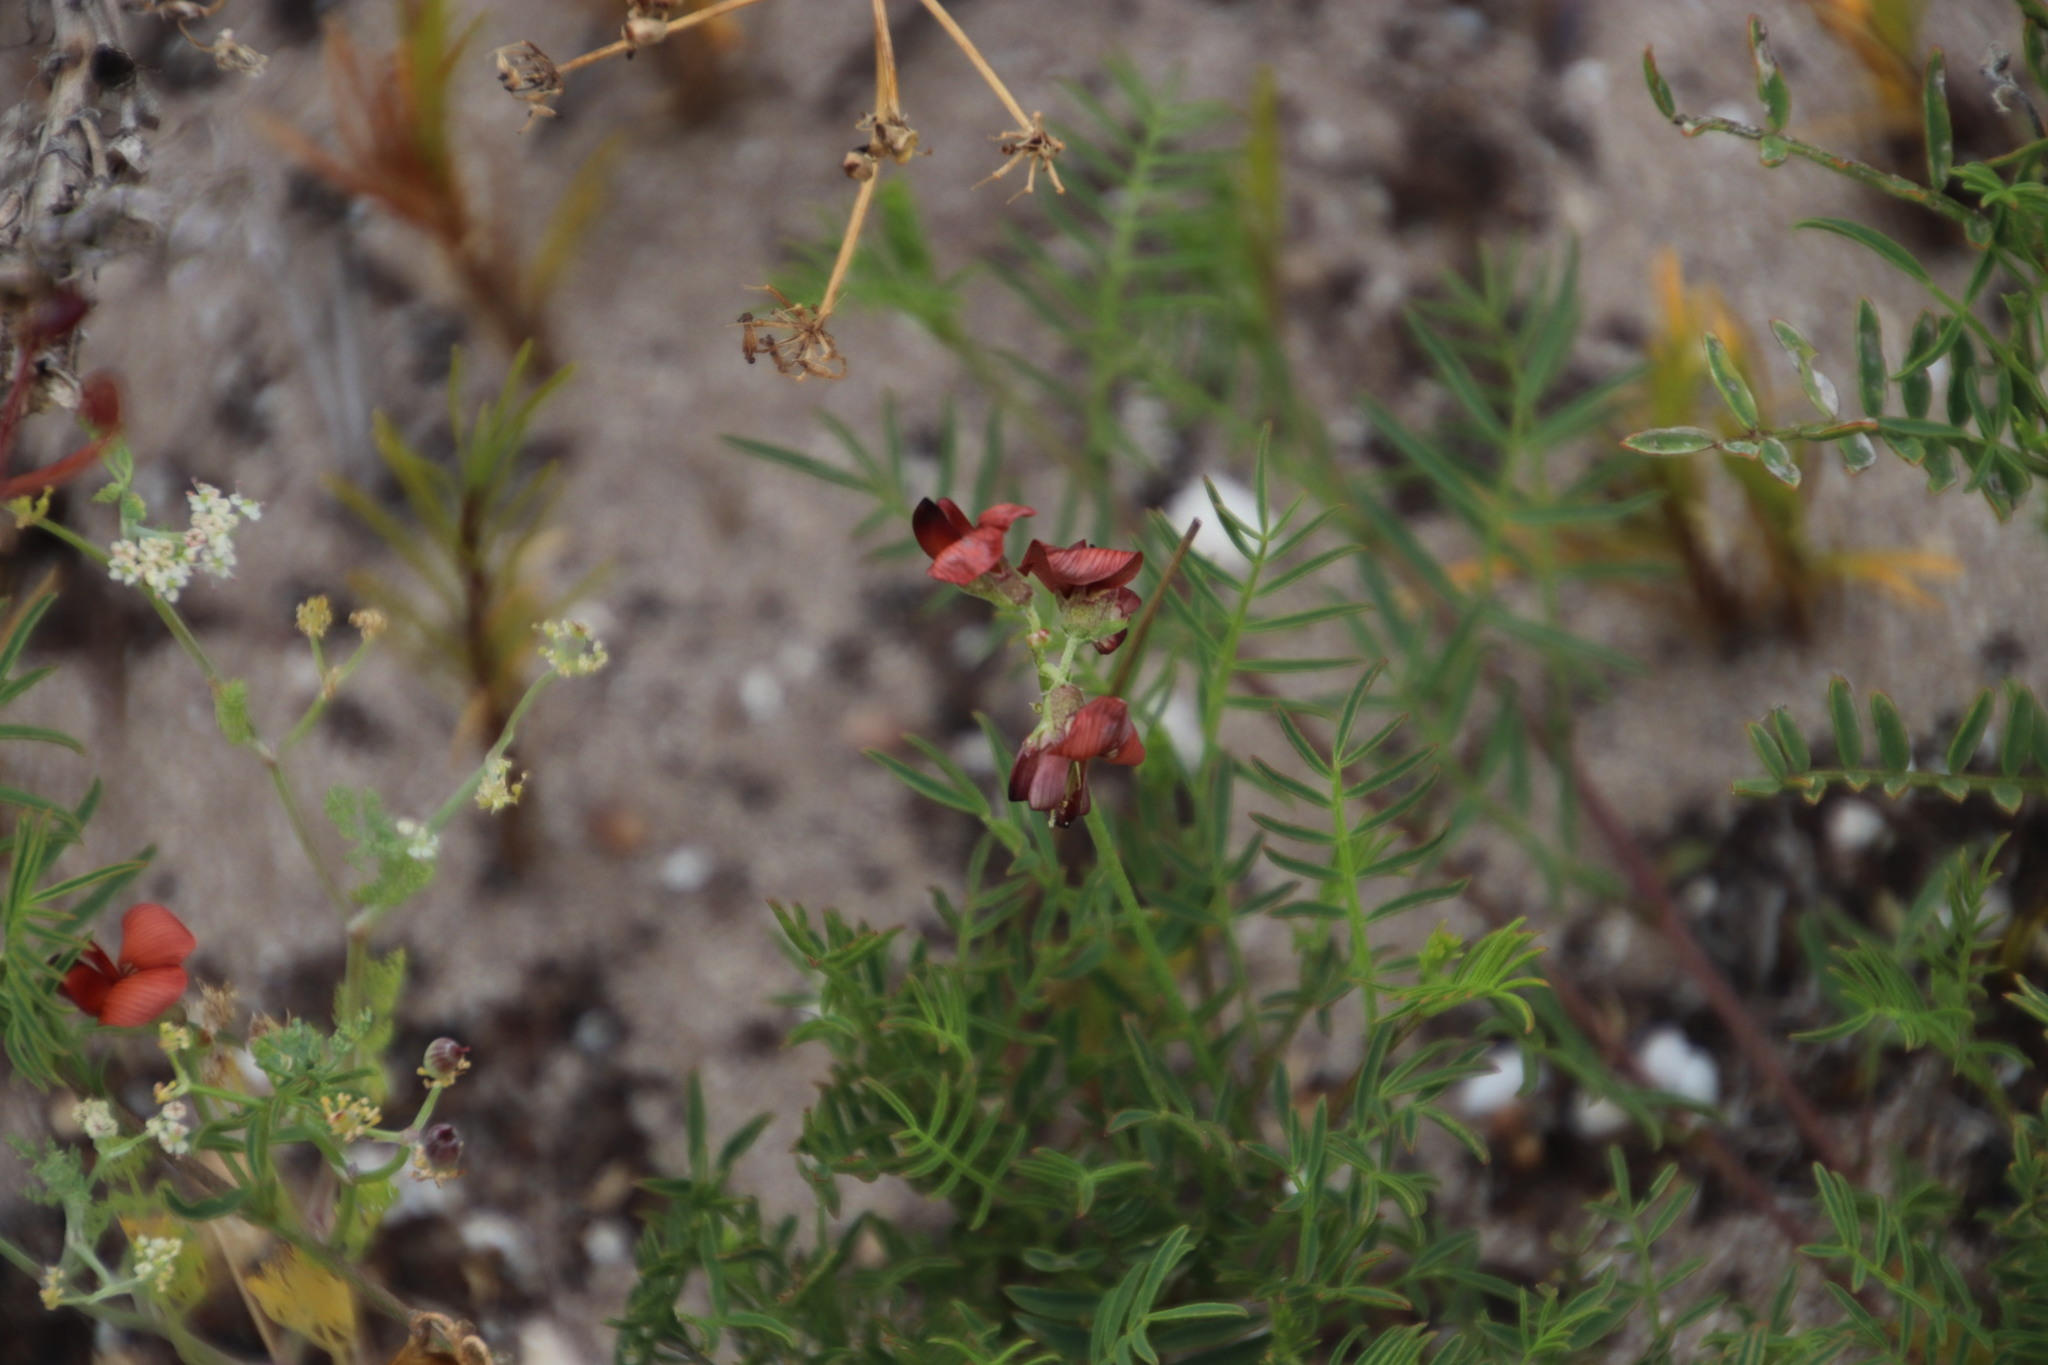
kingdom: Plantae
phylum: Tracheophyta
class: Magnoliopsida
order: Fabales
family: Fabaceae
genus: Lessertia
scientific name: Lessertia miniata
